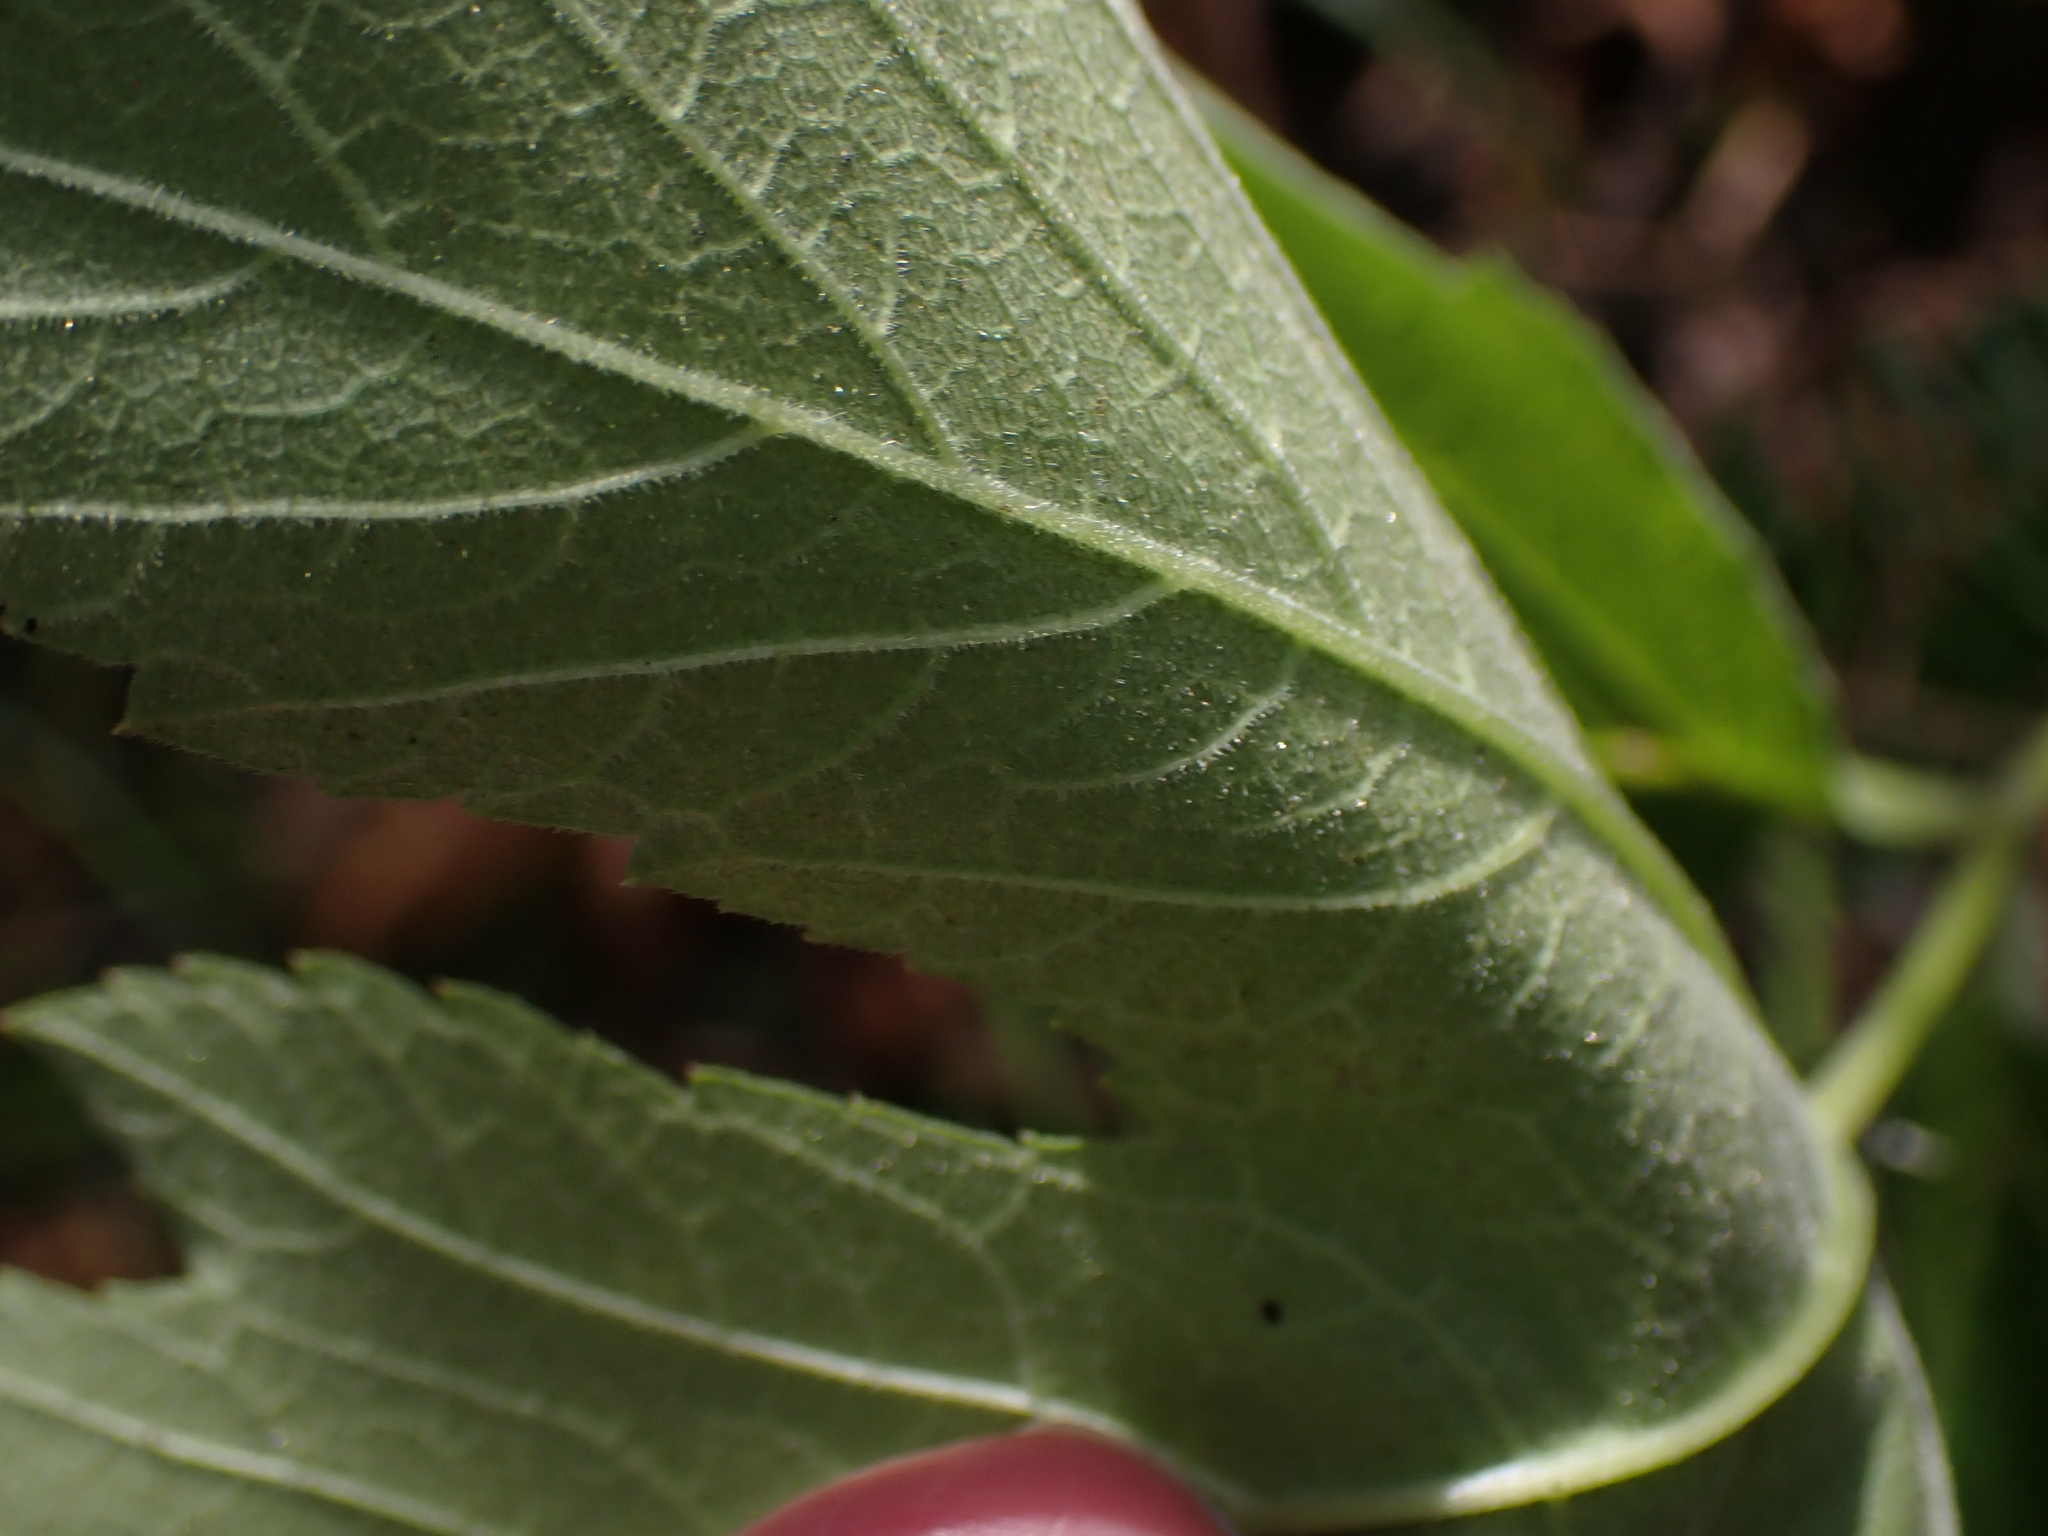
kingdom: Plantae
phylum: Tracheophyta
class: Magnoliopsida
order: Apiales
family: Apiaceae
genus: Heracleum
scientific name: Heracleum maximum
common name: American cow parsnip
